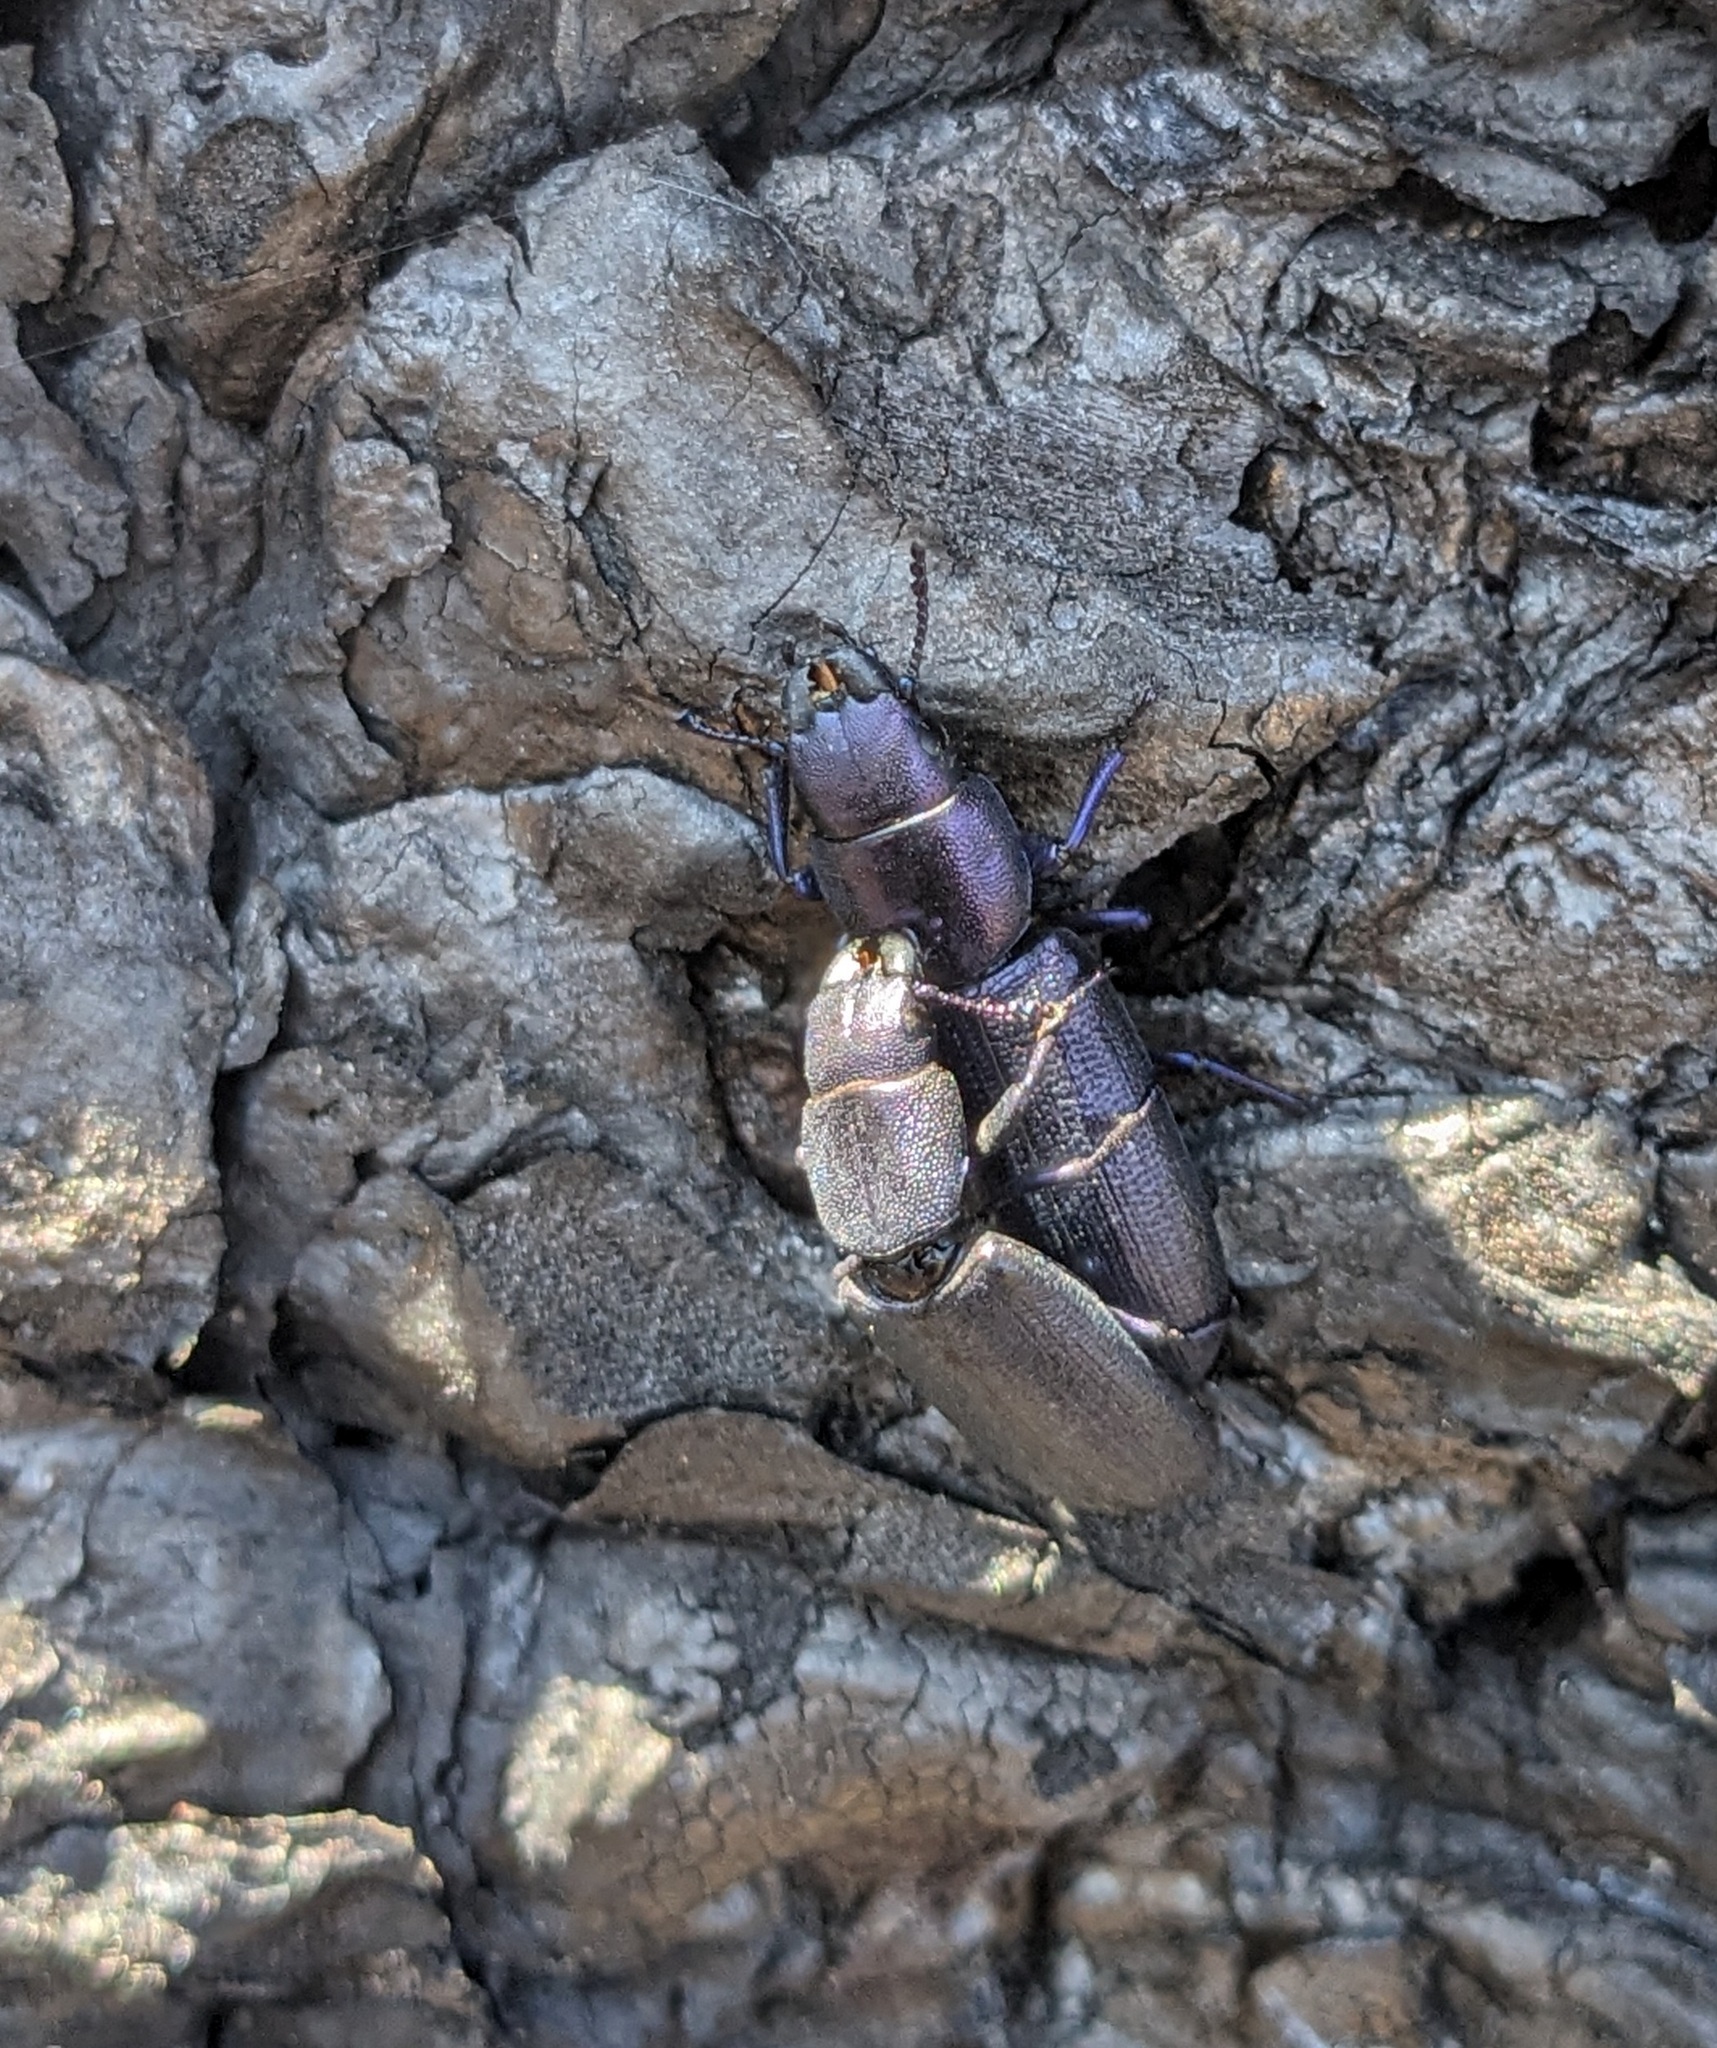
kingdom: Animalia
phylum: Arthropoda
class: Insecta
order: Coleoptera
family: Trogossitidae
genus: Temnoscheila
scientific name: Temnoscheila caerulea
